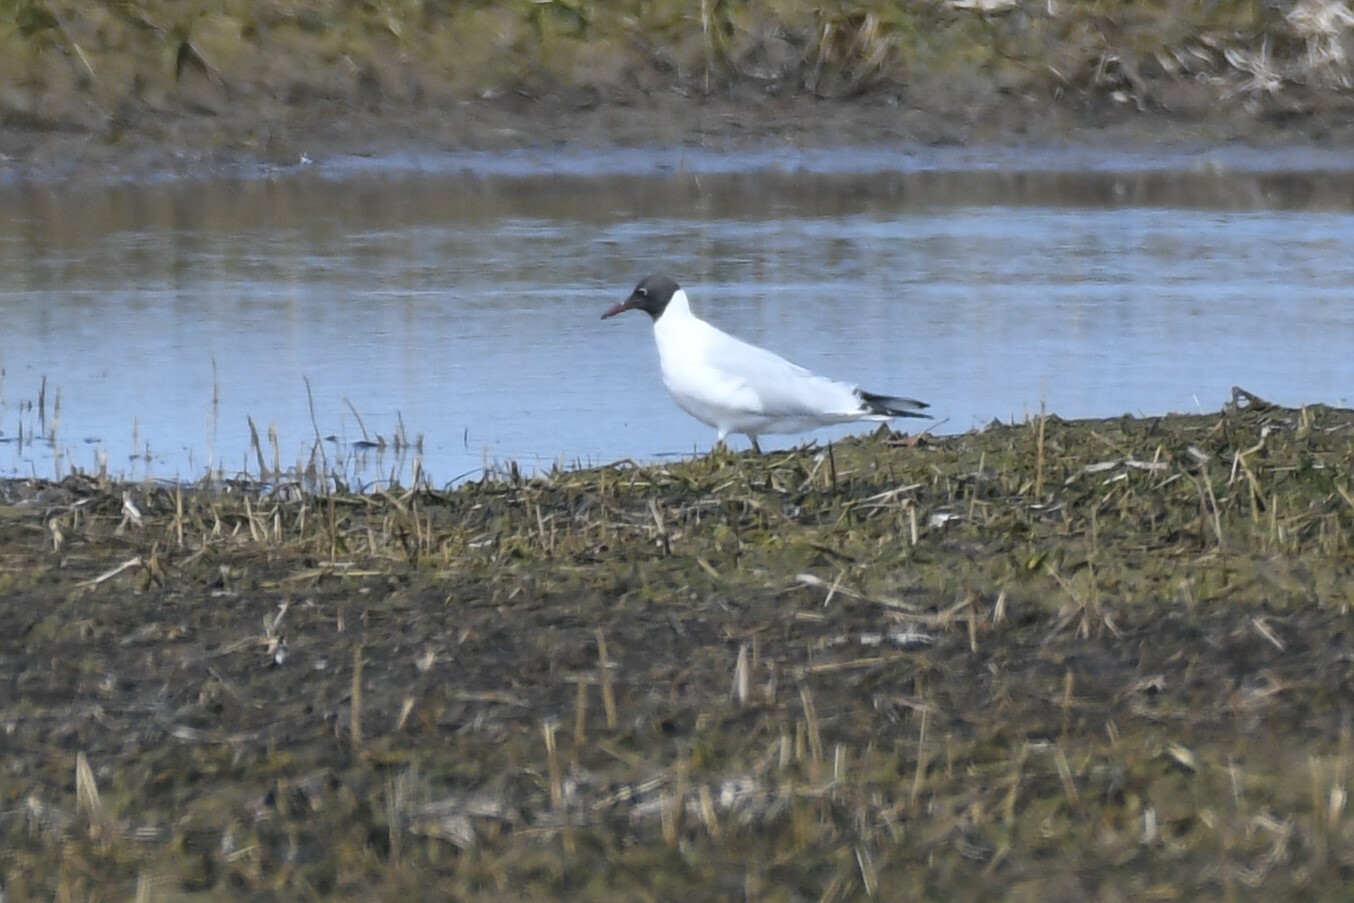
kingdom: Animalia
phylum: Chordata
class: Aves
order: Charadriiformes
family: Laridae
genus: Chroicocephalus
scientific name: Chroicocephalus ridibundus
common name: Black-headed gull
